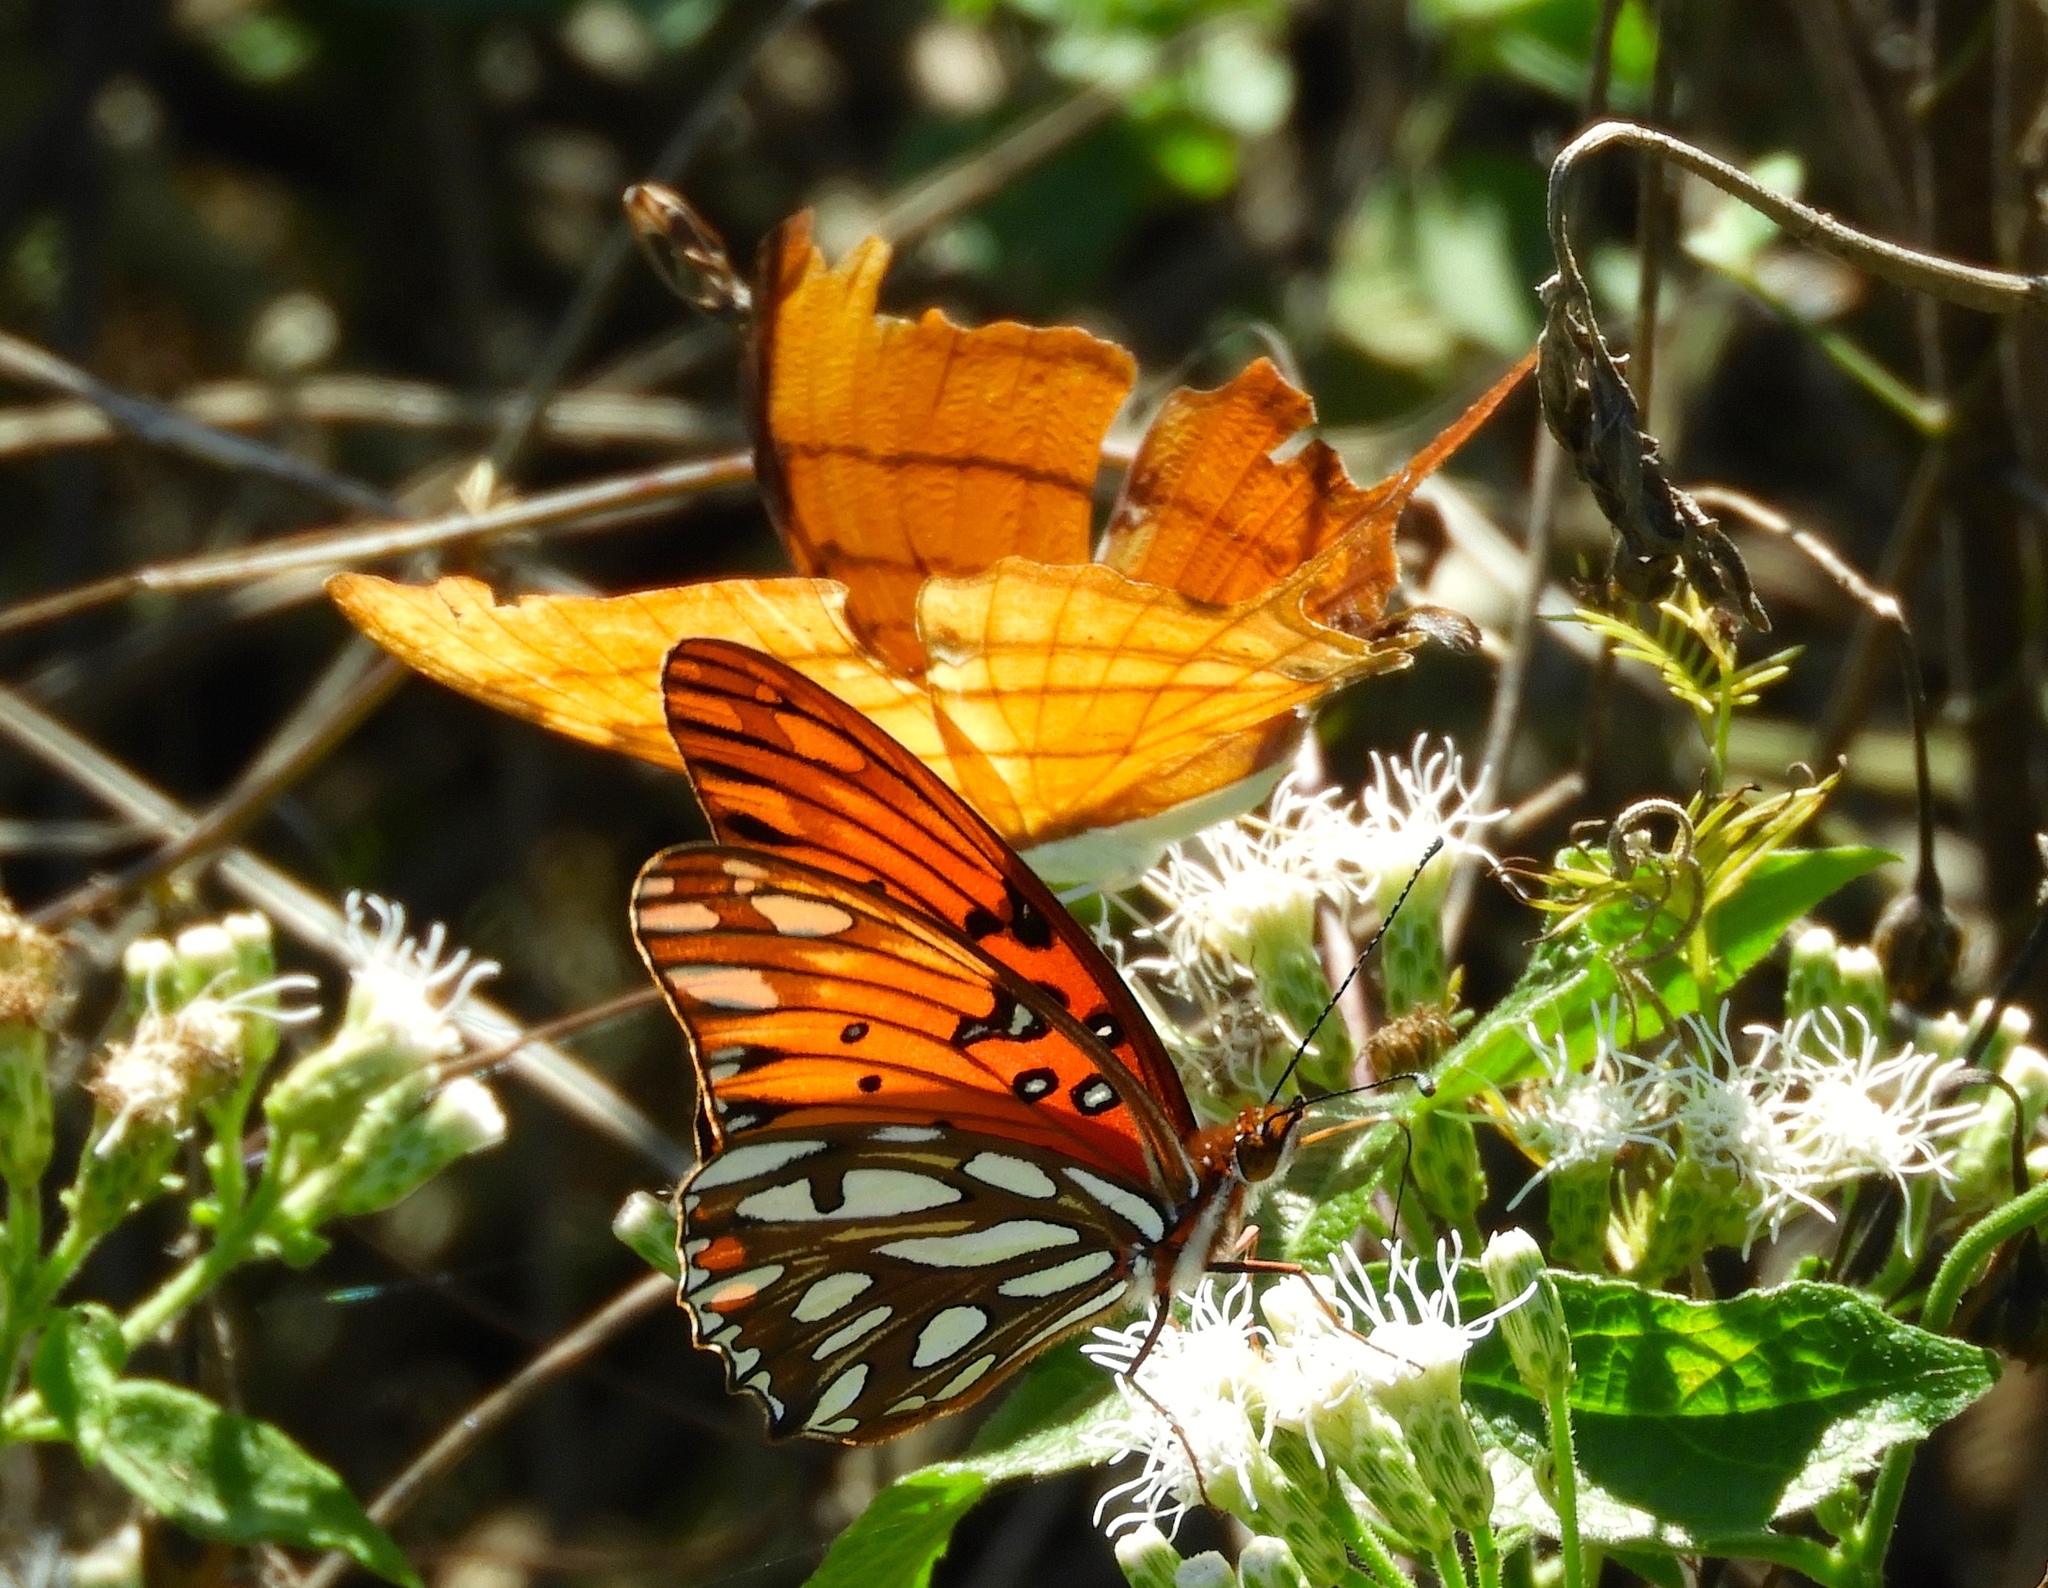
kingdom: Animalia
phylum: Arthropoda
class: Insecta
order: Lepidoptera
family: Nymphalidae
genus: Dione
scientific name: Dione vanillae
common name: Gulf fritillary
